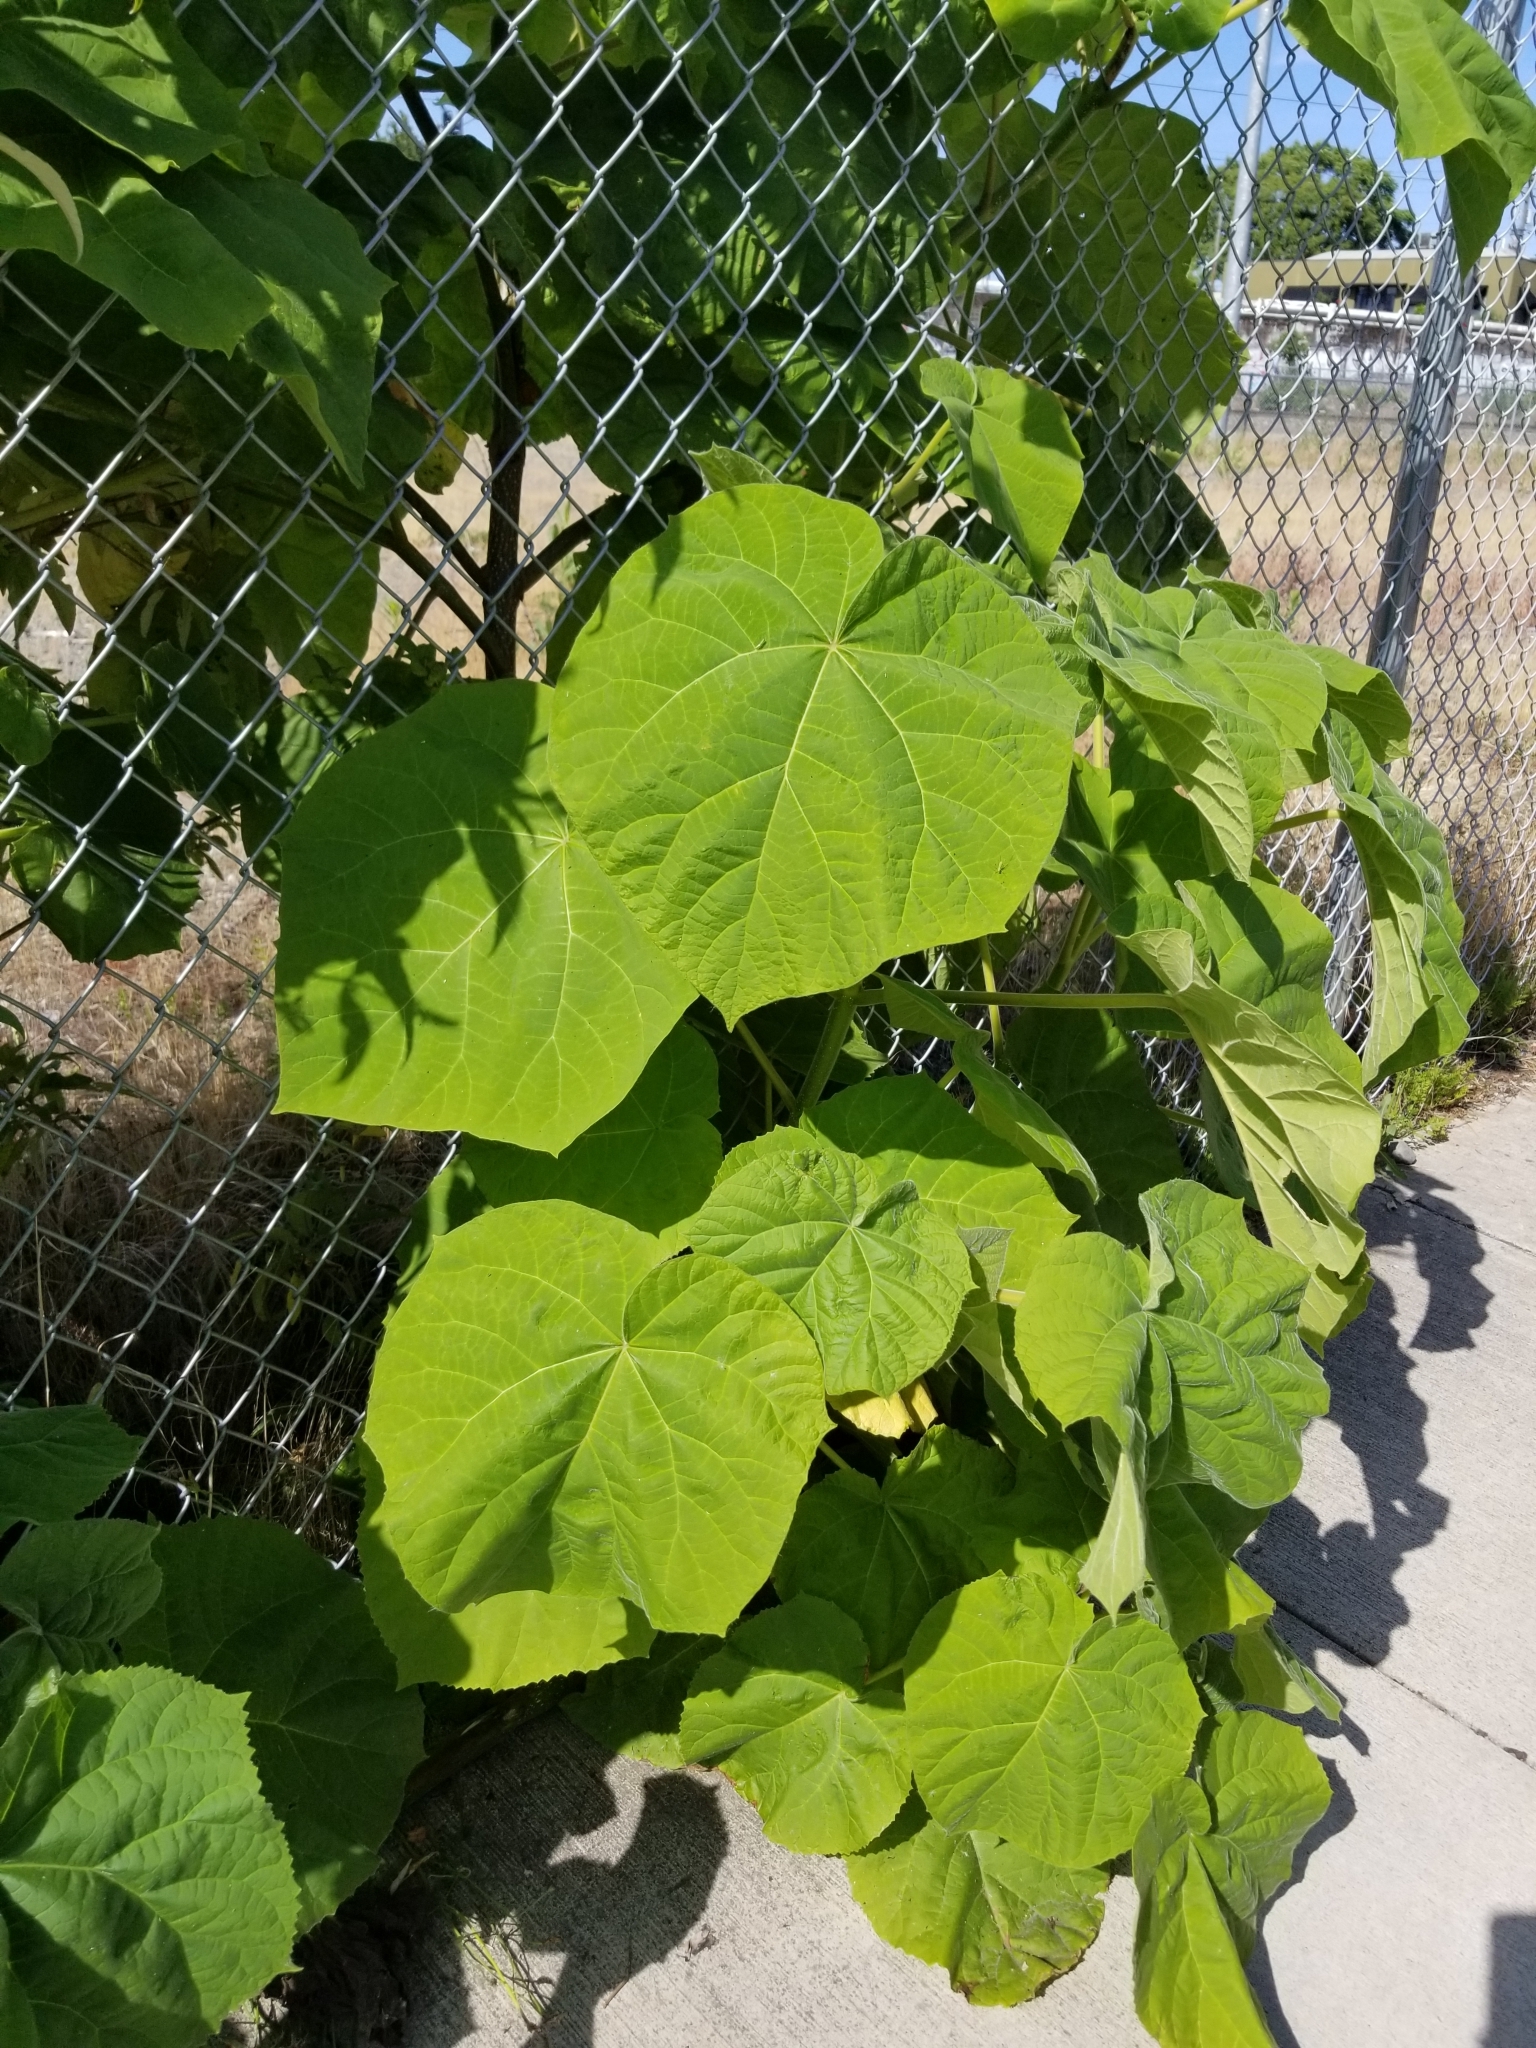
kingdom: Plantae
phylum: Tracheophyta
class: Magnoliopsida
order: Lamiales
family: Paulowniaceae
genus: Paulownia
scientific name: Paulownia tomentosa
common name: Foxglove-tree
